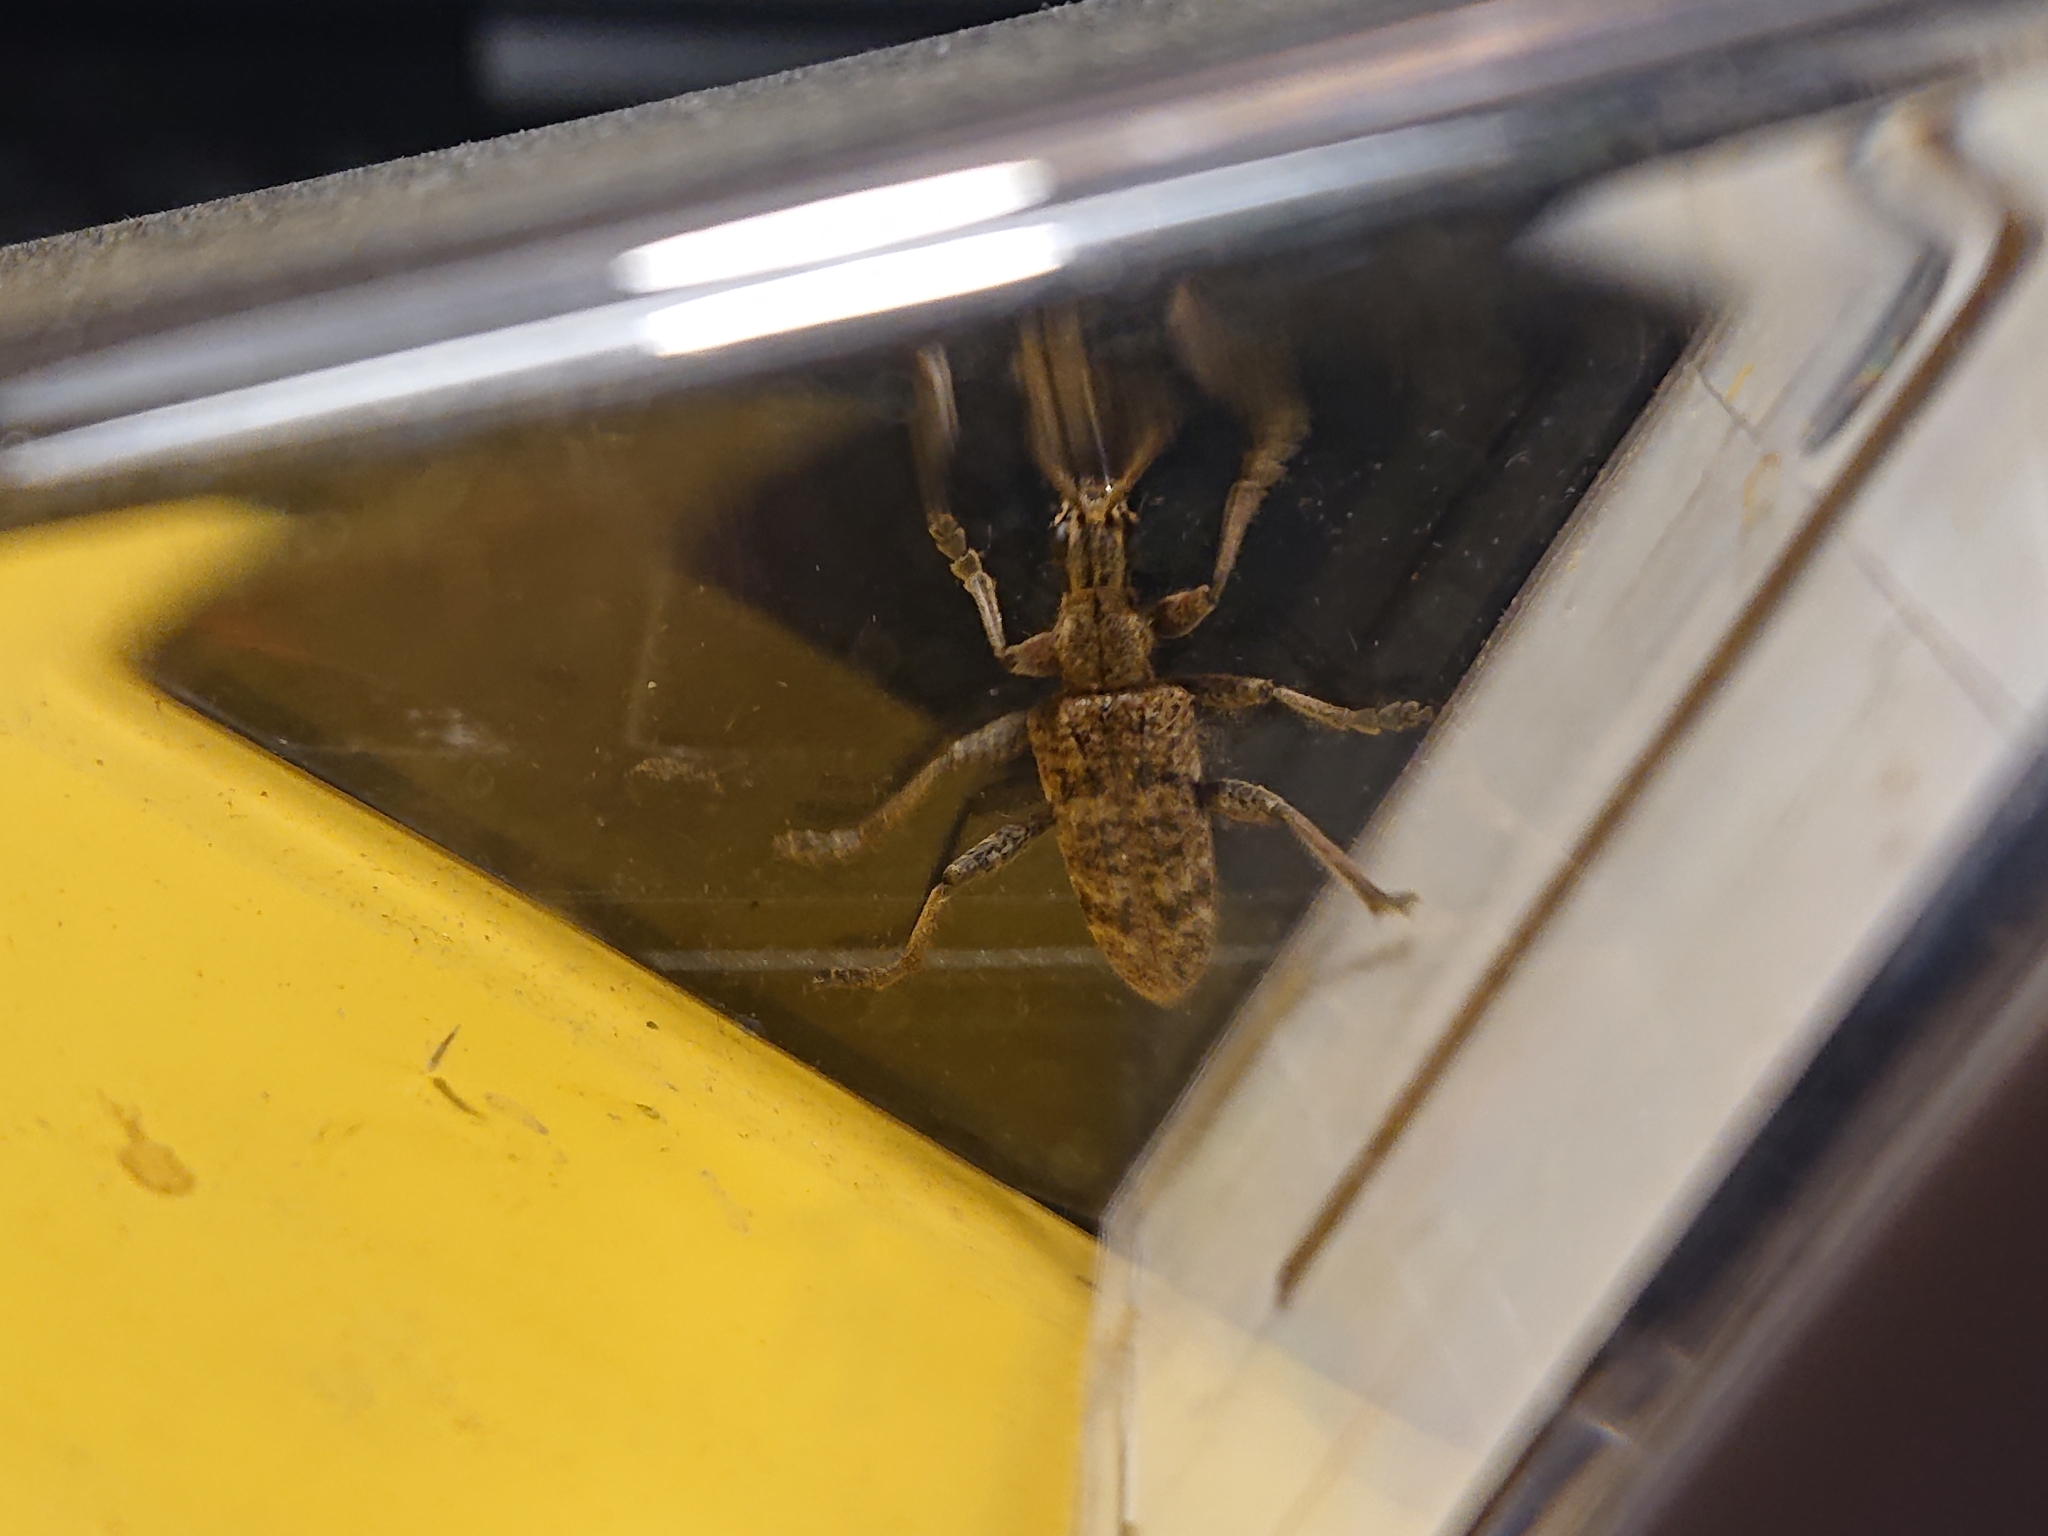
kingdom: Animalia
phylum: Arthropoda
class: Insecta
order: Coleoptera
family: Cerambycidae
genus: Rhagium
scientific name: Rhagium inquisitor
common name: Ribbed pine borer
